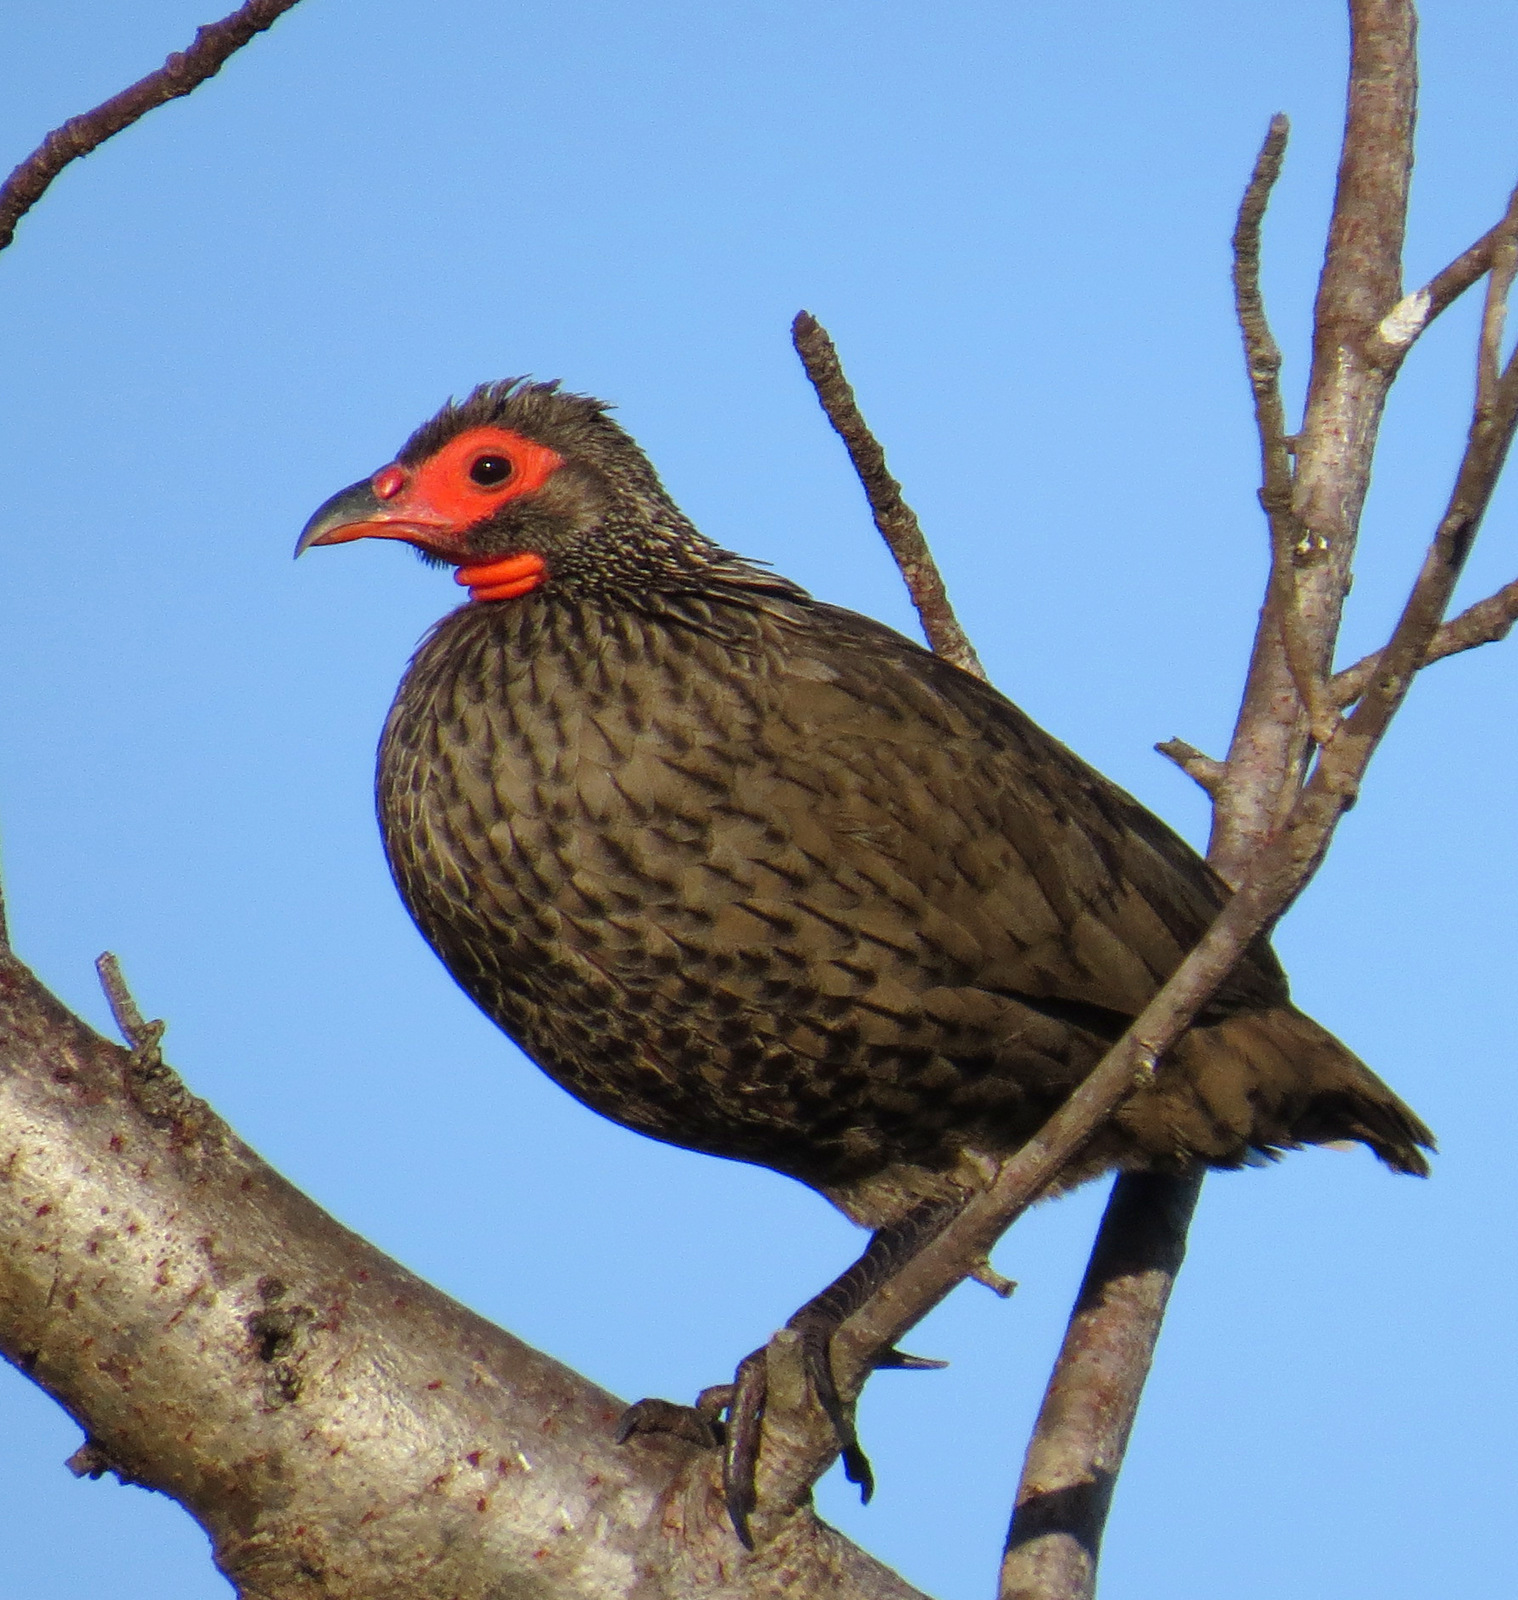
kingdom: Animalia
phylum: Chordata
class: Aves
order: Galliformes
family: Phasianidae
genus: Pternistis
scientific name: Pternistis swainsonii
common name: Swainson's spurfowl
